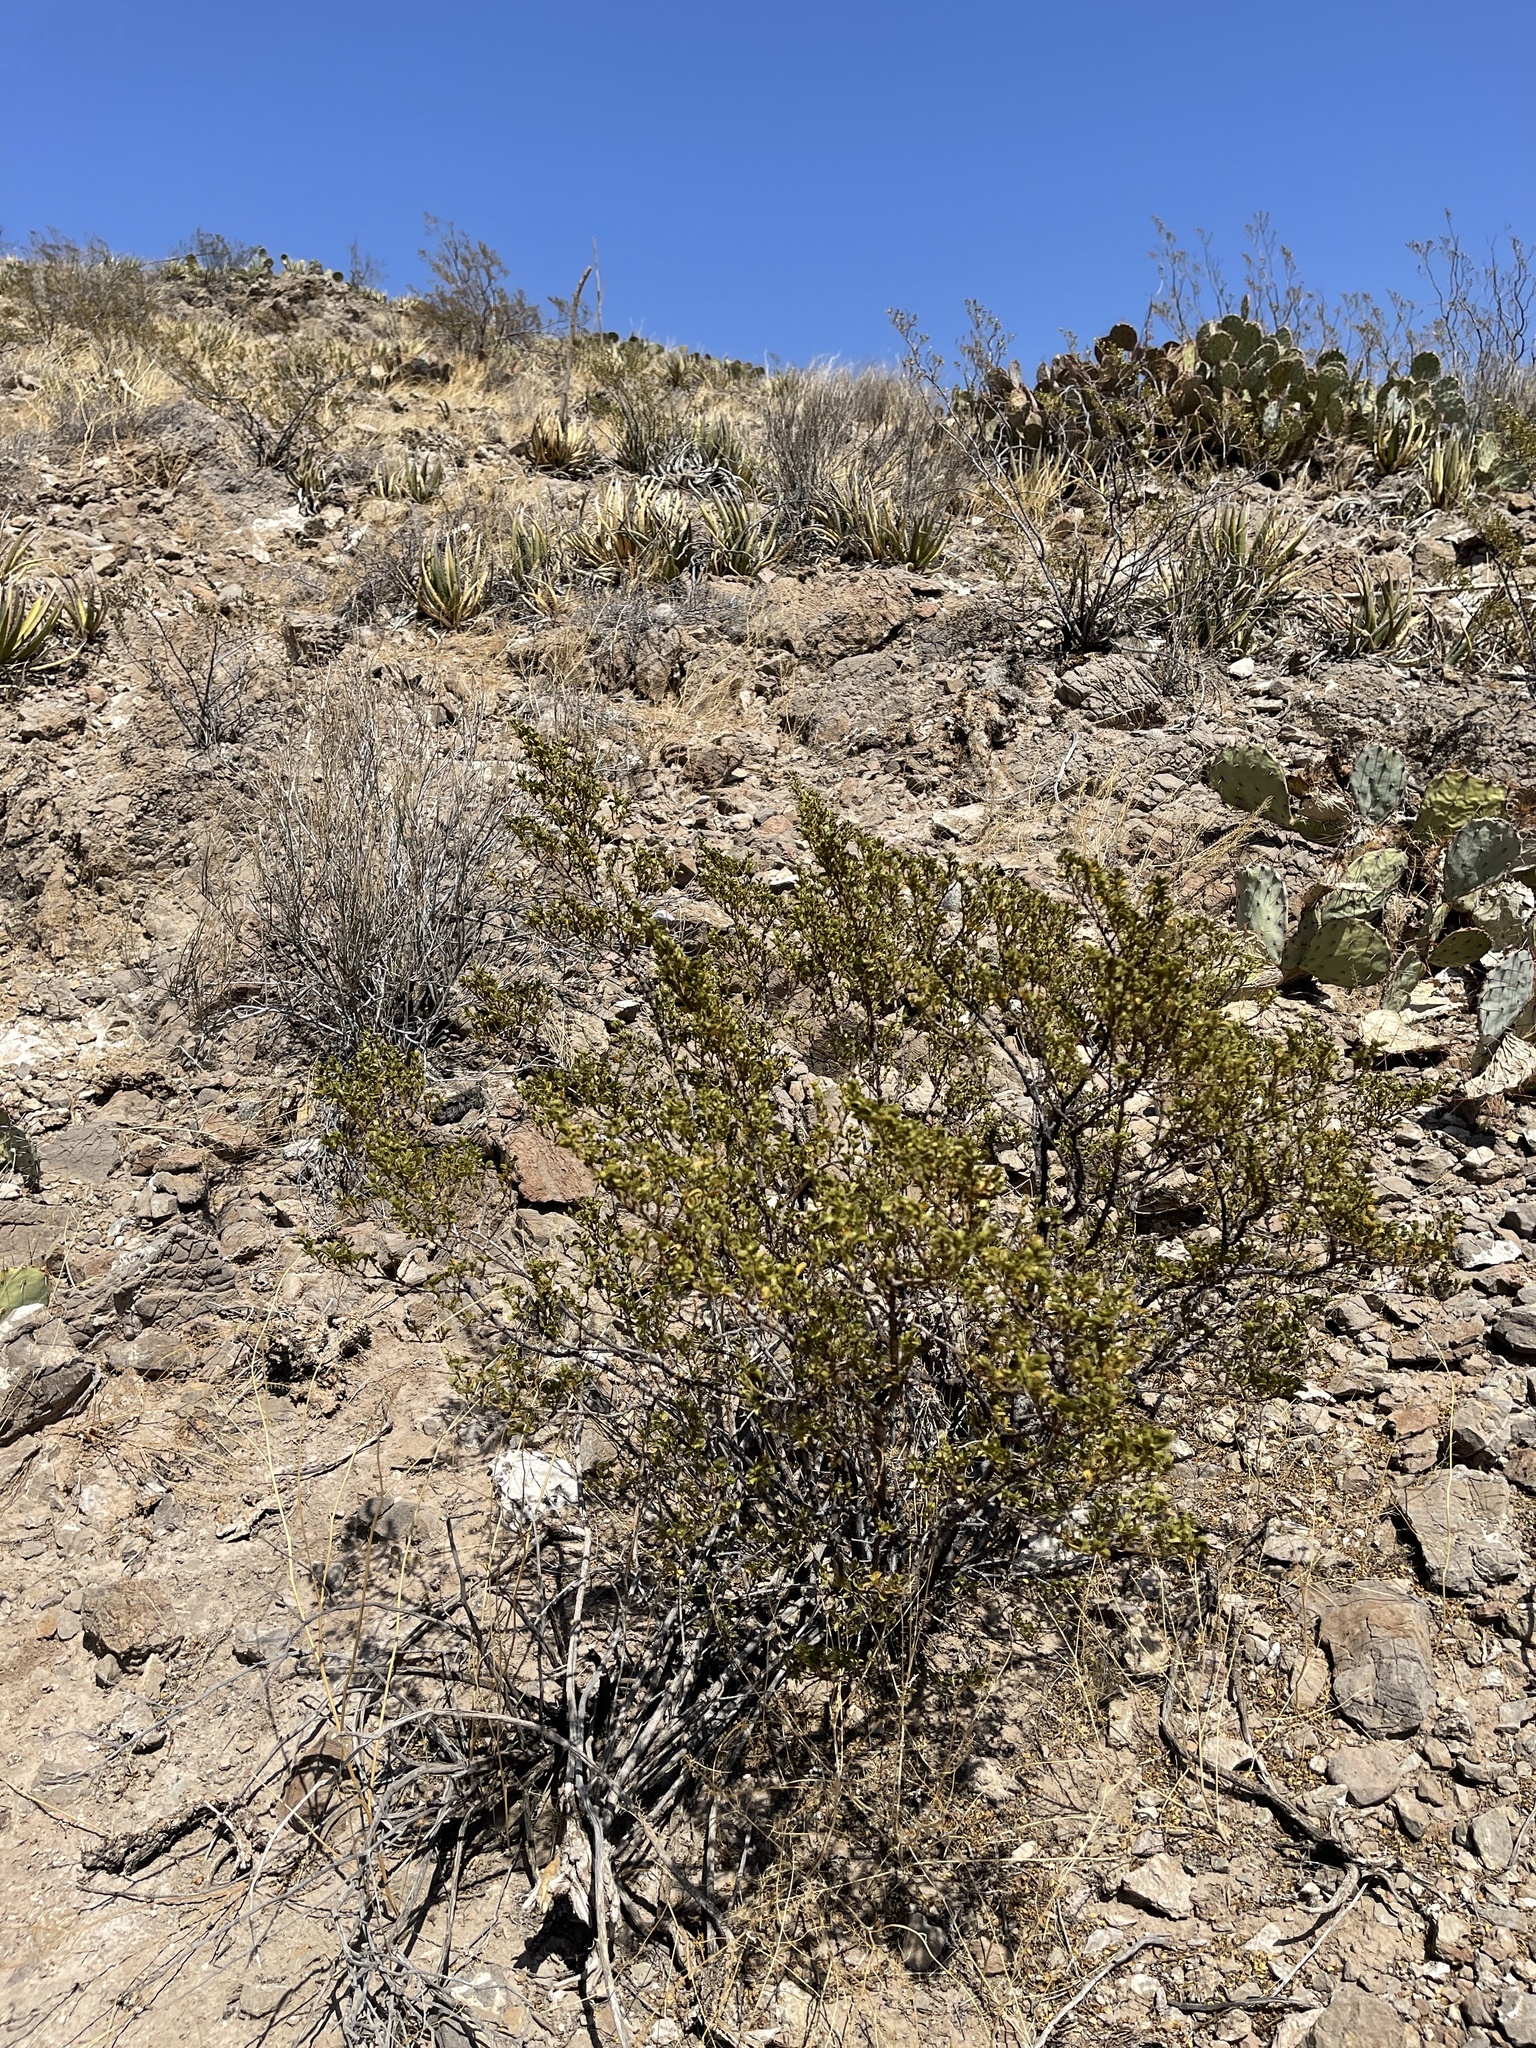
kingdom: Plantae
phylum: Tracheophyta
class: Magnoliopsida
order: Zygophyllales
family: Zygophyllaceae
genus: Larrea
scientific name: Larrea tridentata
